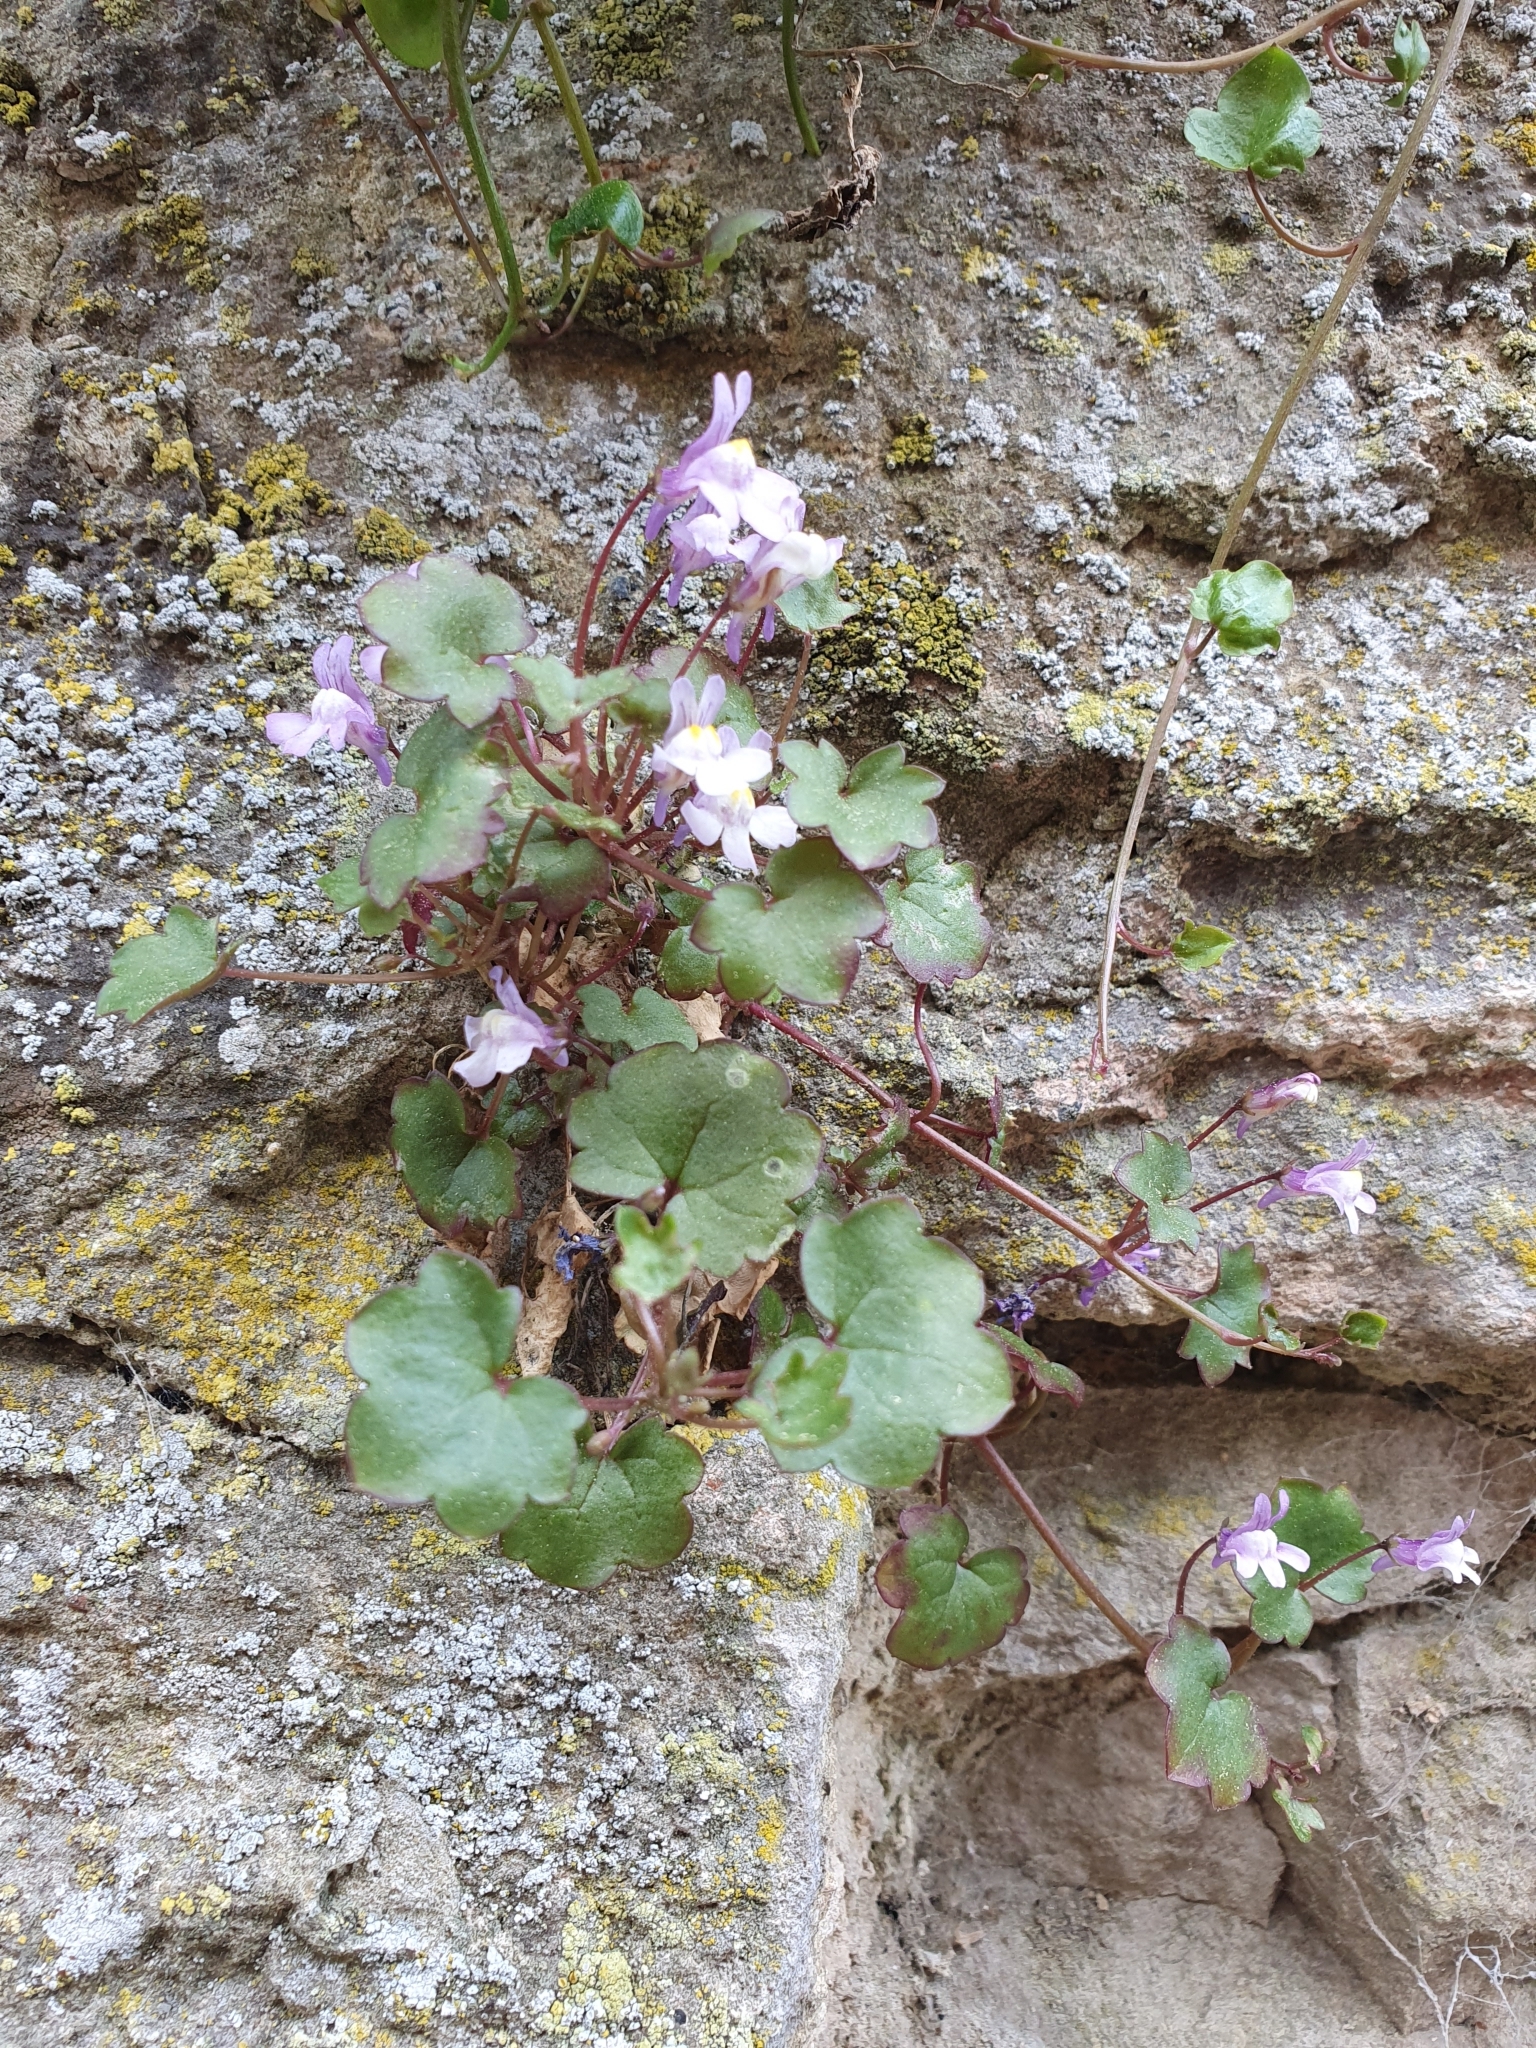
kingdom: Plantae
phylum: Tracheophyta
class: Magnoliopsida
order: Lamiales
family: Plantaginaceae
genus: Cymbalaria
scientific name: Cymbalaria muralis
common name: Ivy-leaved toadflax
